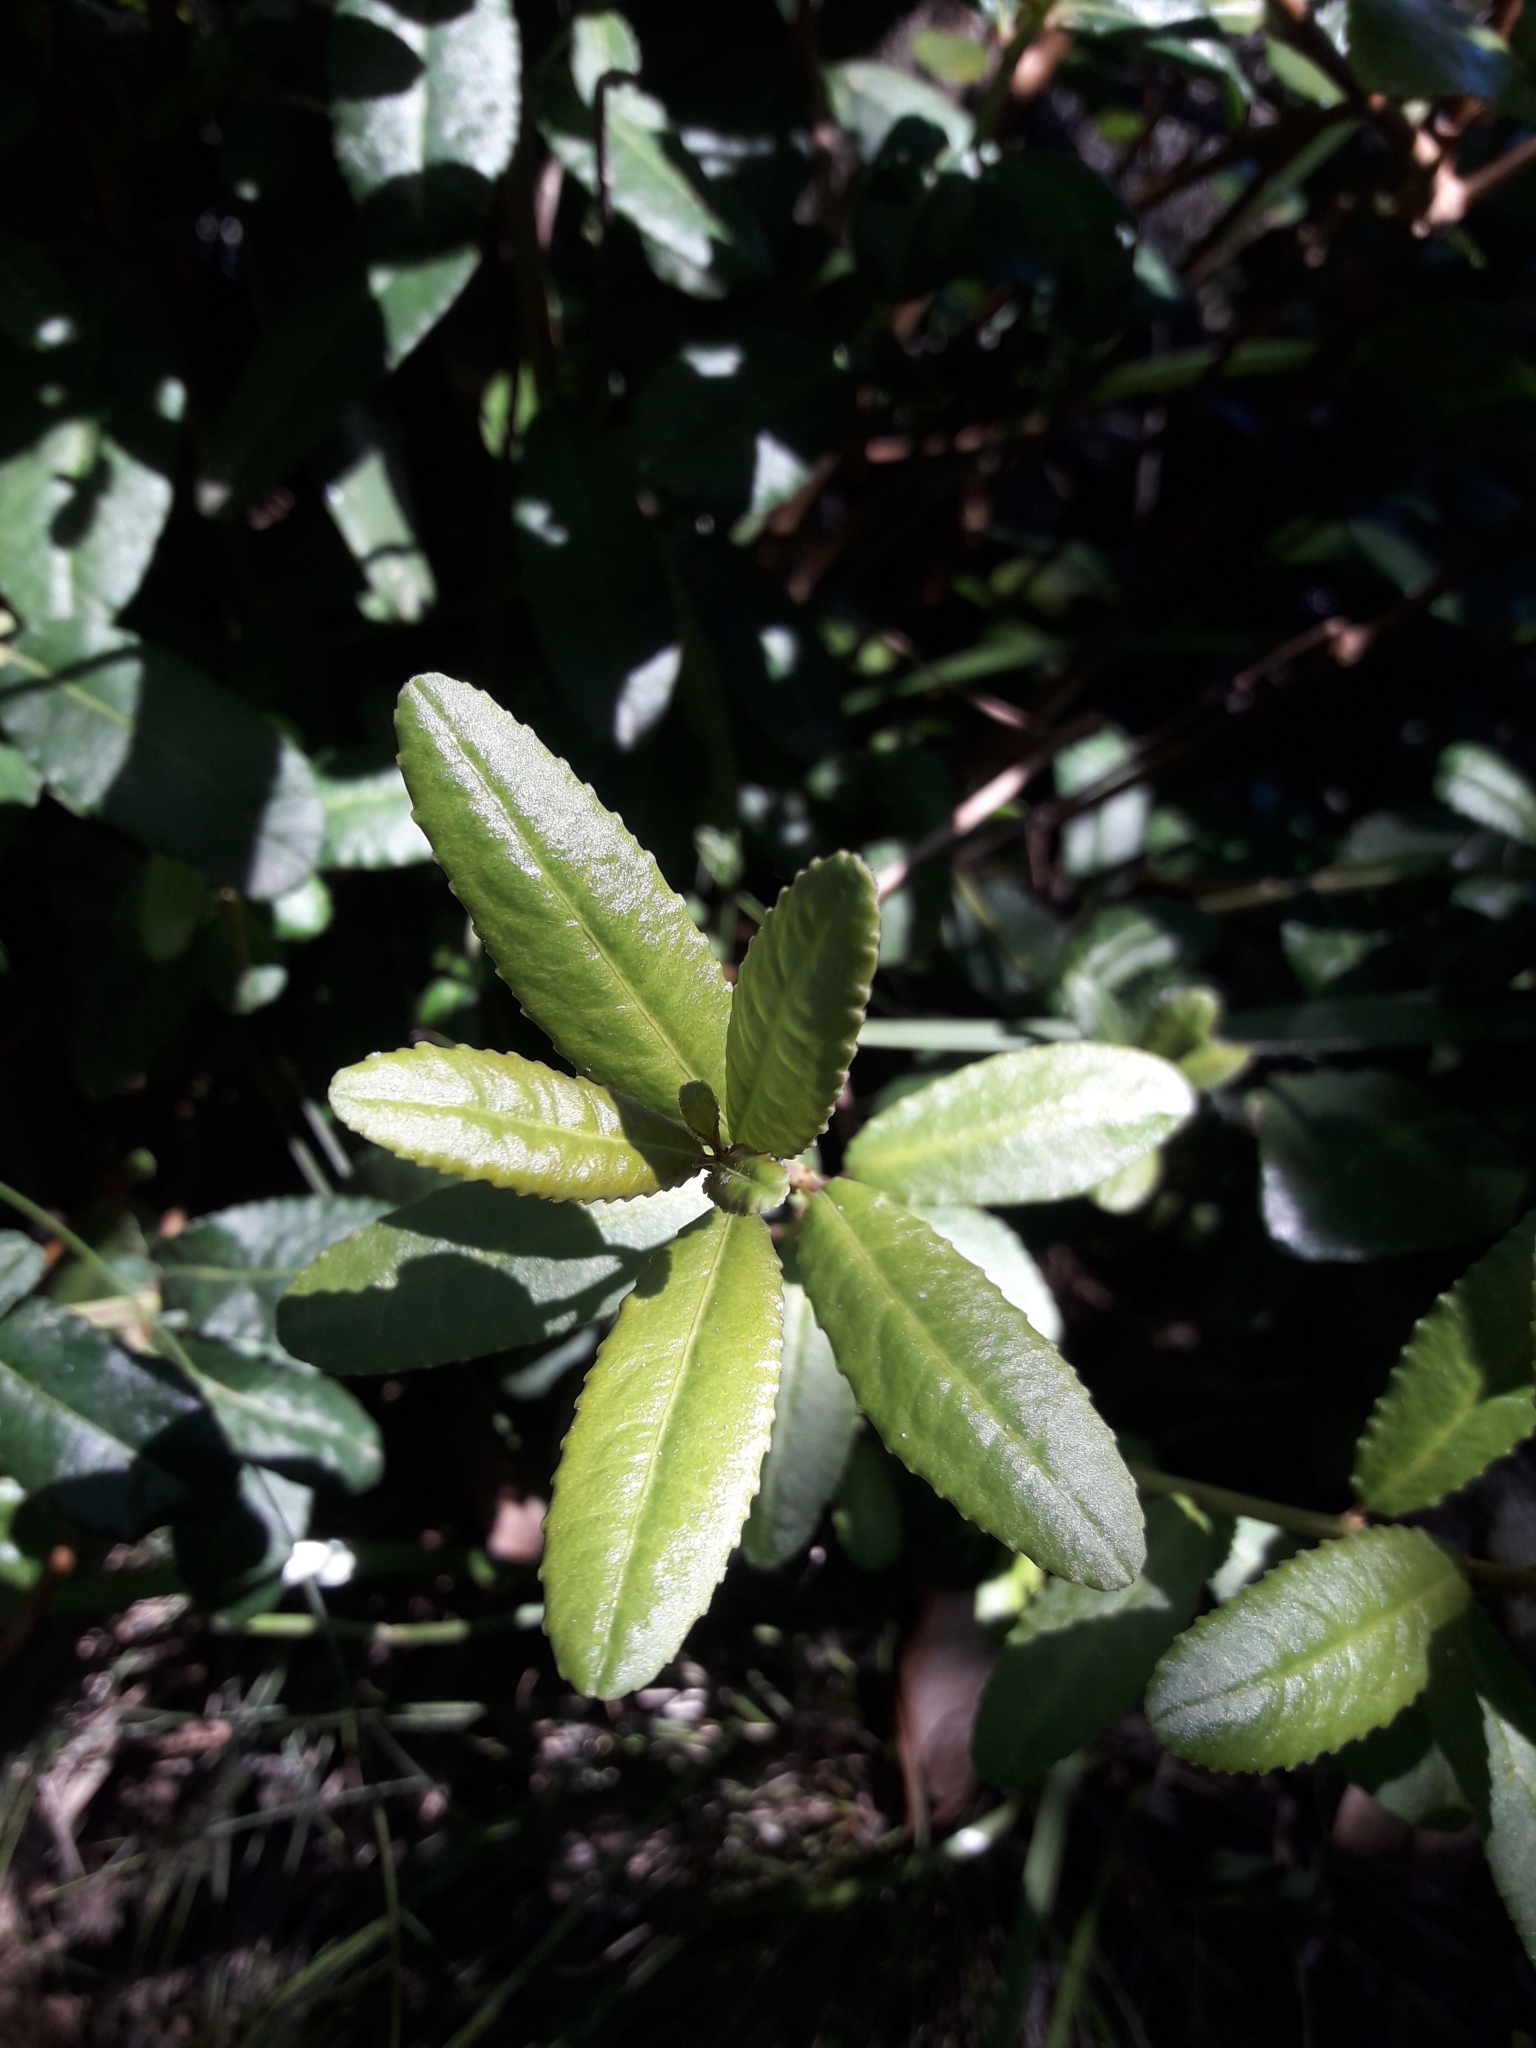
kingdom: Plantae
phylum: Tracheophyta
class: Magnoliopsida
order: Malpighiales
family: Euphorbiaceae
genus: Adenopeltis
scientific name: Adenopeltis serrata
